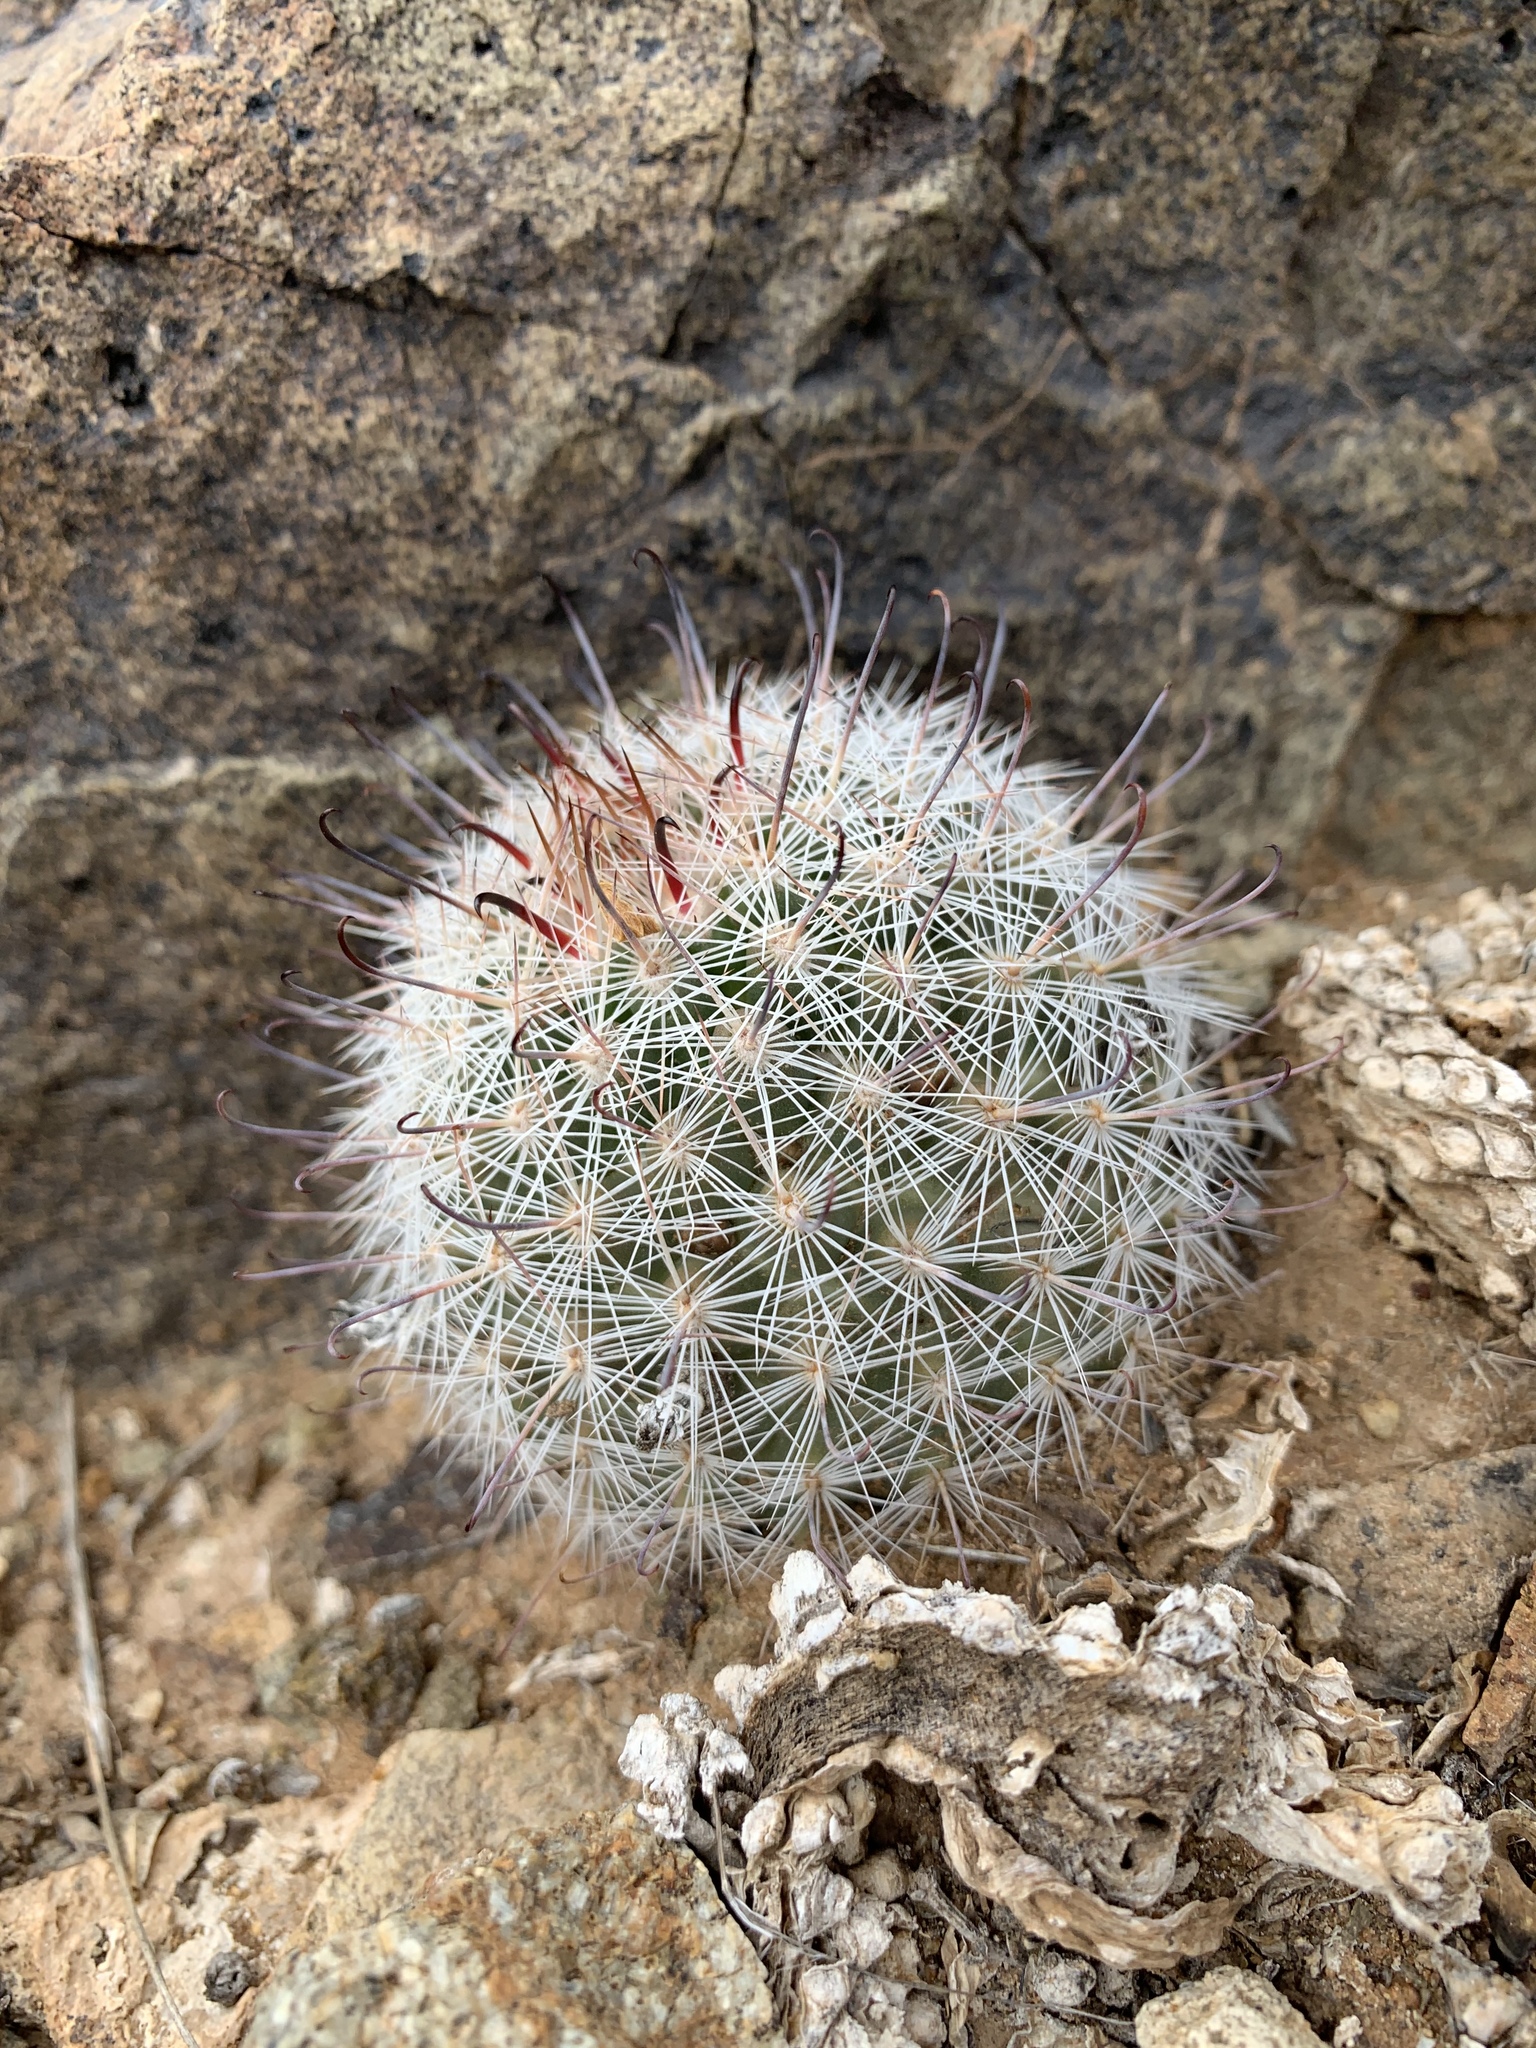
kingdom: Plantae
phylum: Tracheophyta
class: Magnoliopsida
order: Caryophyllales
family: Cactaceae
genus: Cochemiea
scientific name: Cochemiea grahamii
